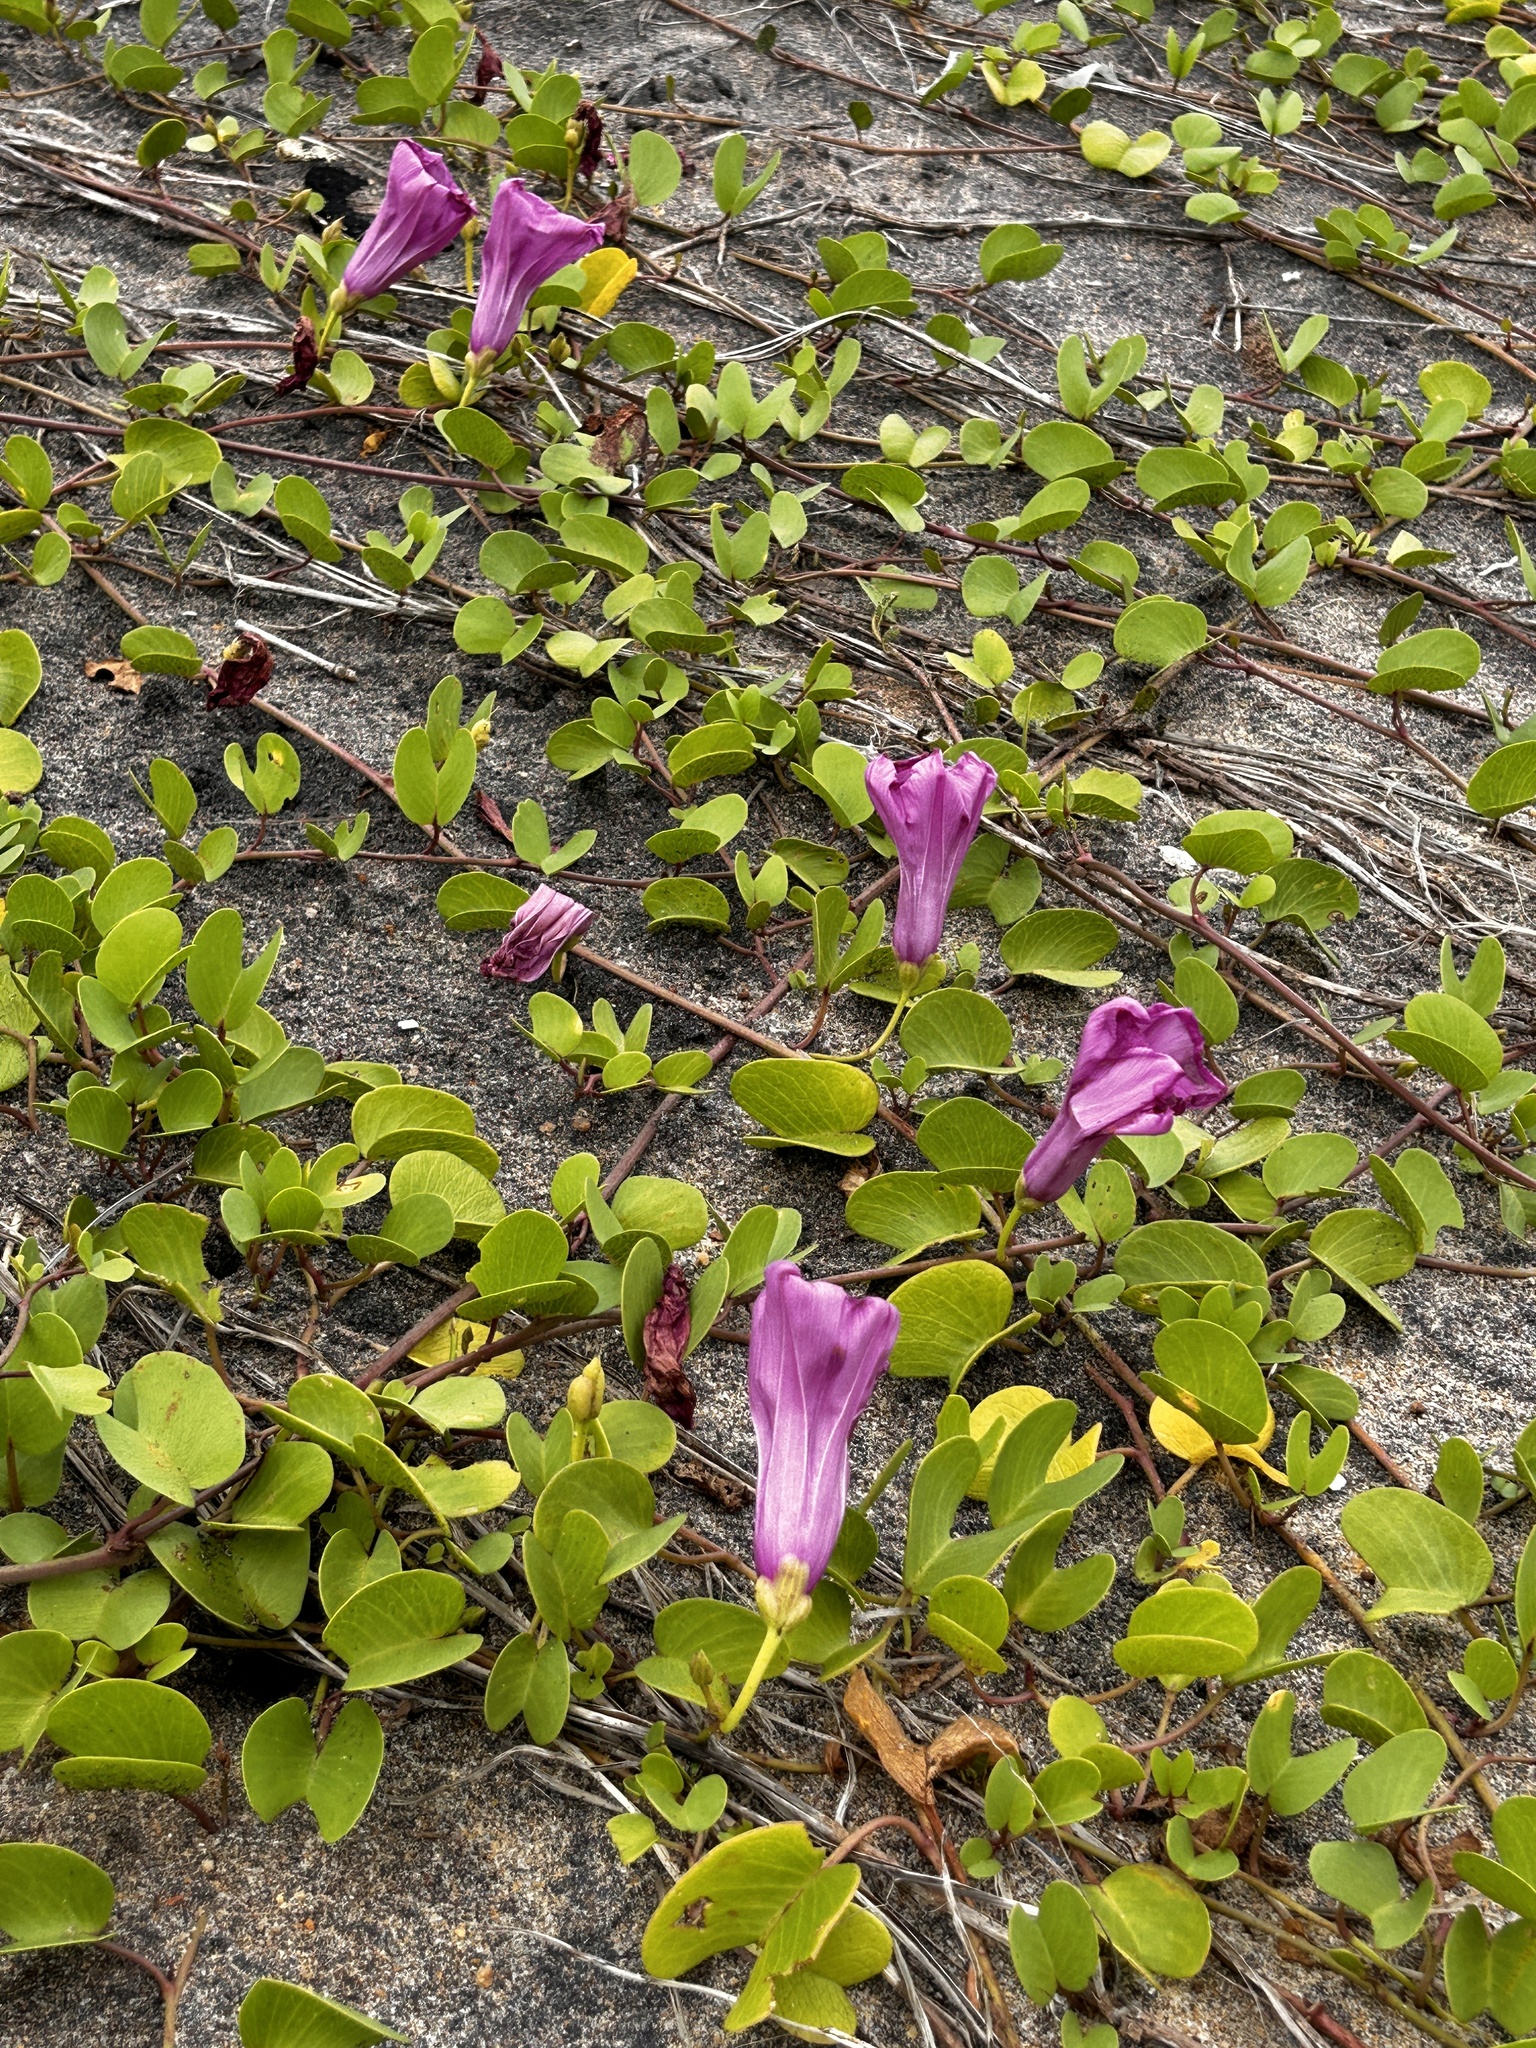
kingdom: Plantae
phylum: Tracheophyta
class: Magnoliopsida
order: Solanales
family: Convolvulaceae
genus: Ipomoea
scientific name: Ipomoea pes-caprae
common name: Beach morning glory
